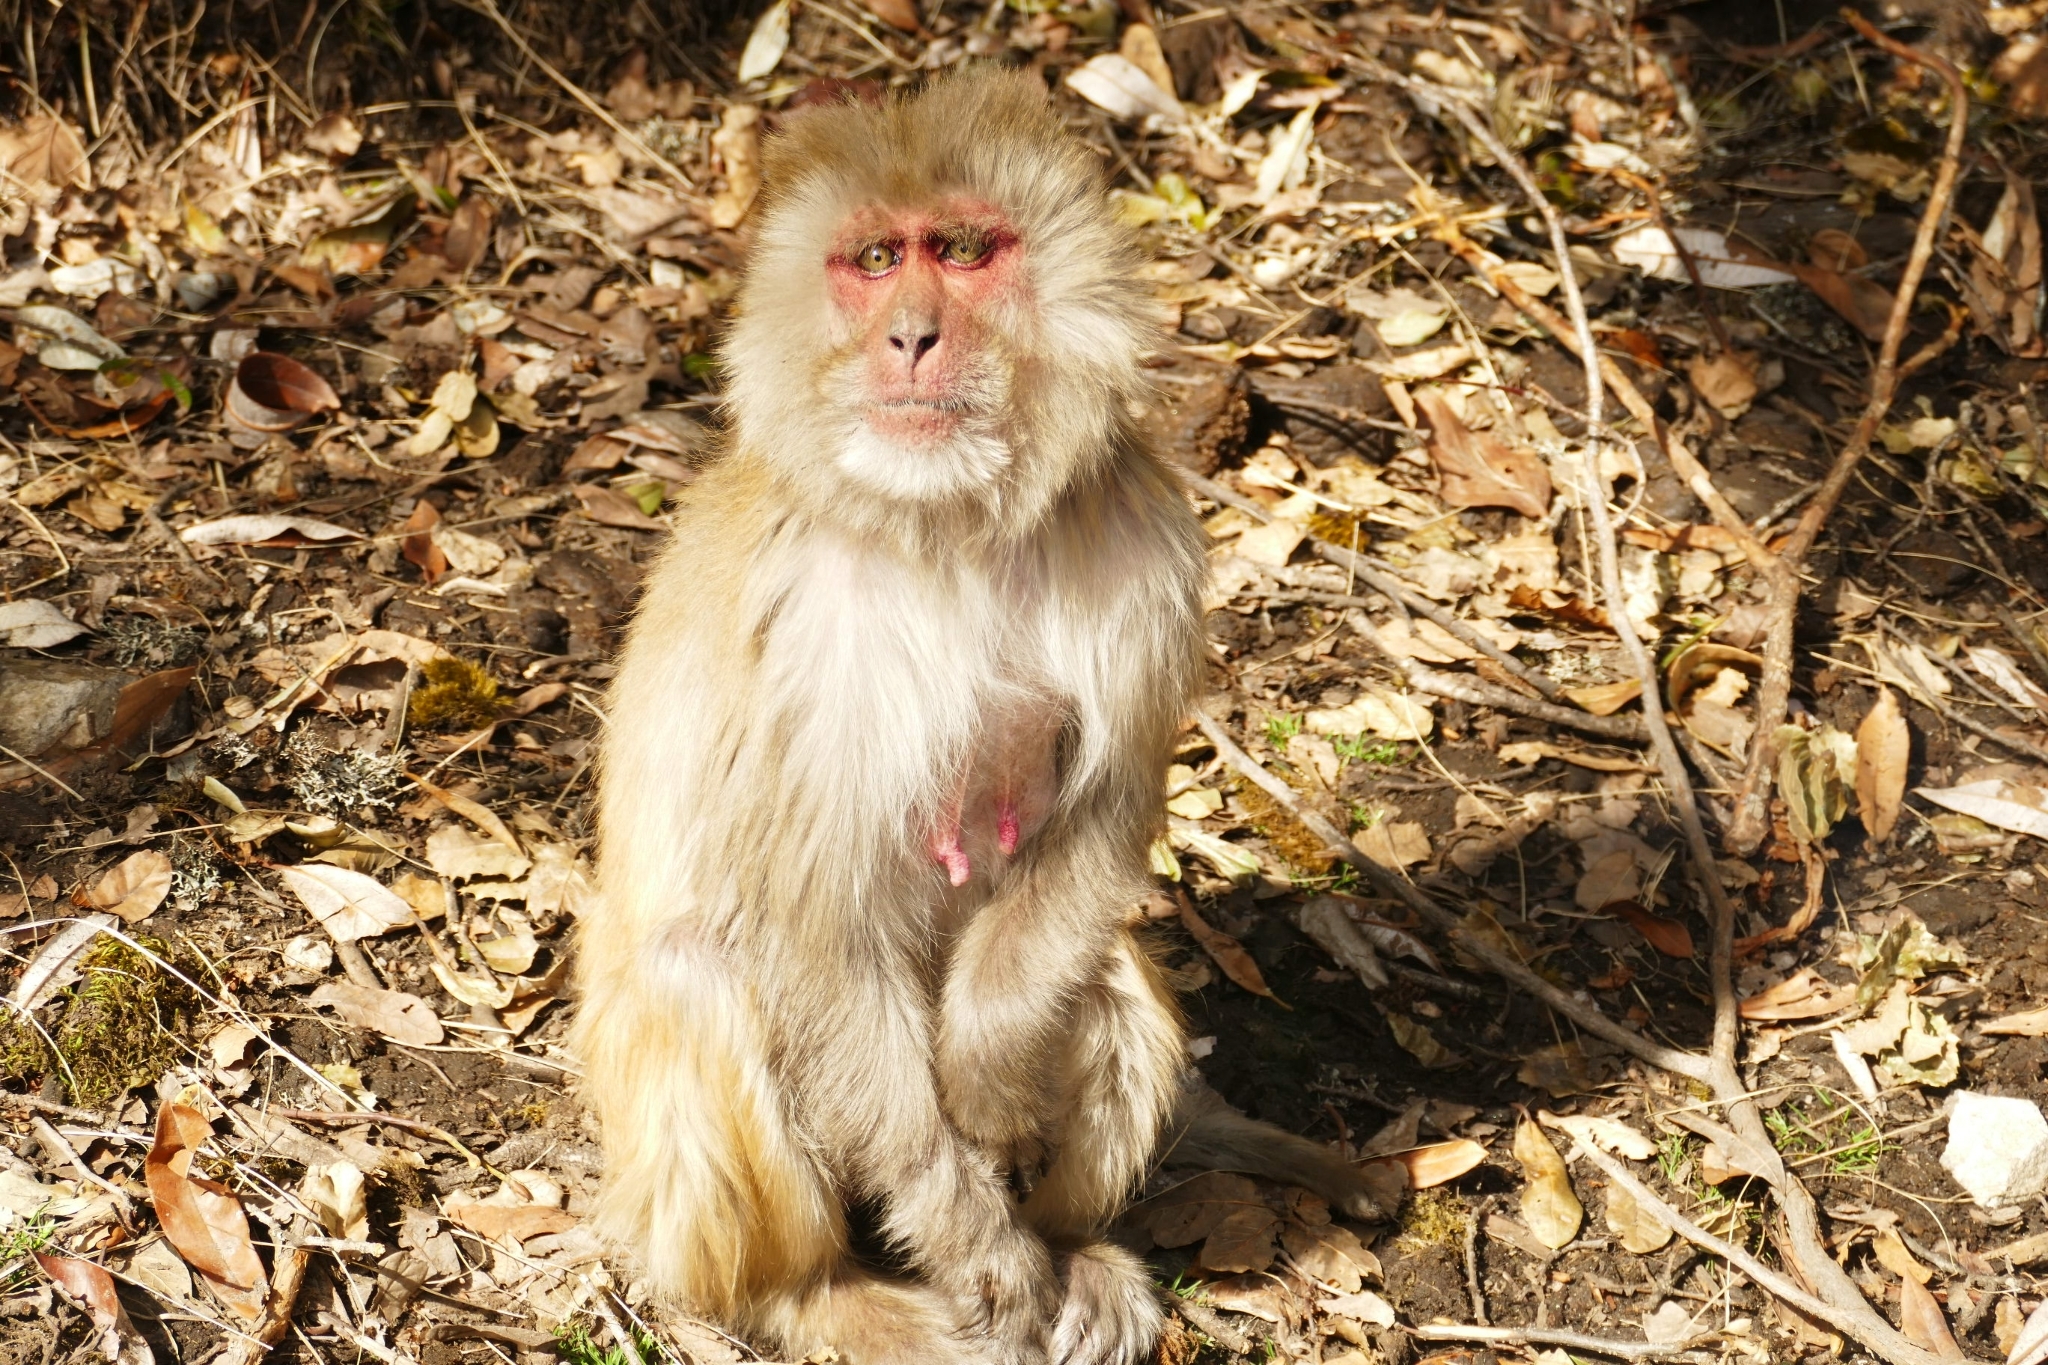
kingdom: Animalia
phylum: Chordata
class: Mammalia
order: Primates
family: Cercopithecidae
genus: Macaca
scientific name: Macaca mulatta
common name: Rhesus monkey
